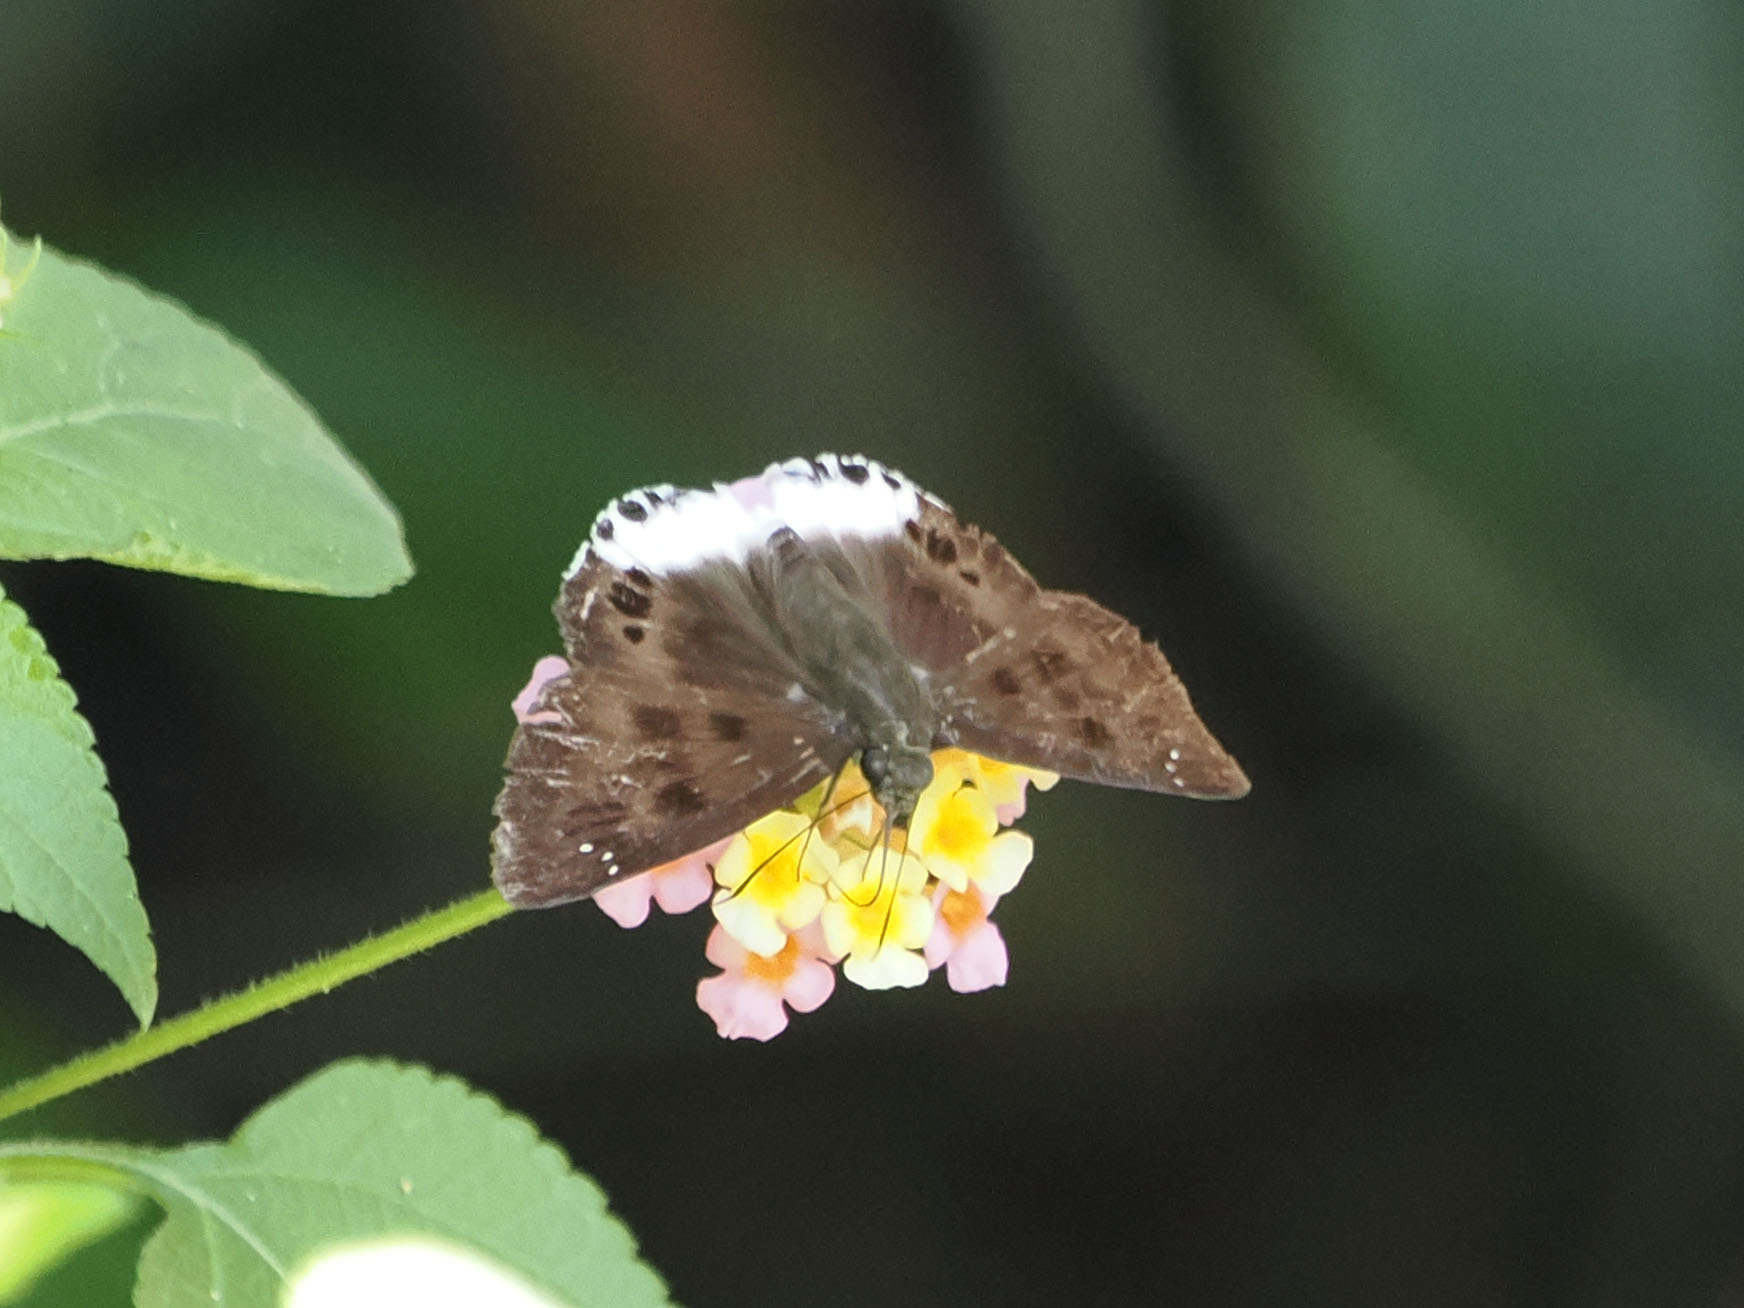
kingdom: Animalia
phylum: Arthropoda
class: Insecta
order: Lepidoptera
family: Hesperiidae
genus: Tagiades
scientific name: Tagiades gana
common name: Suffused snow flat
